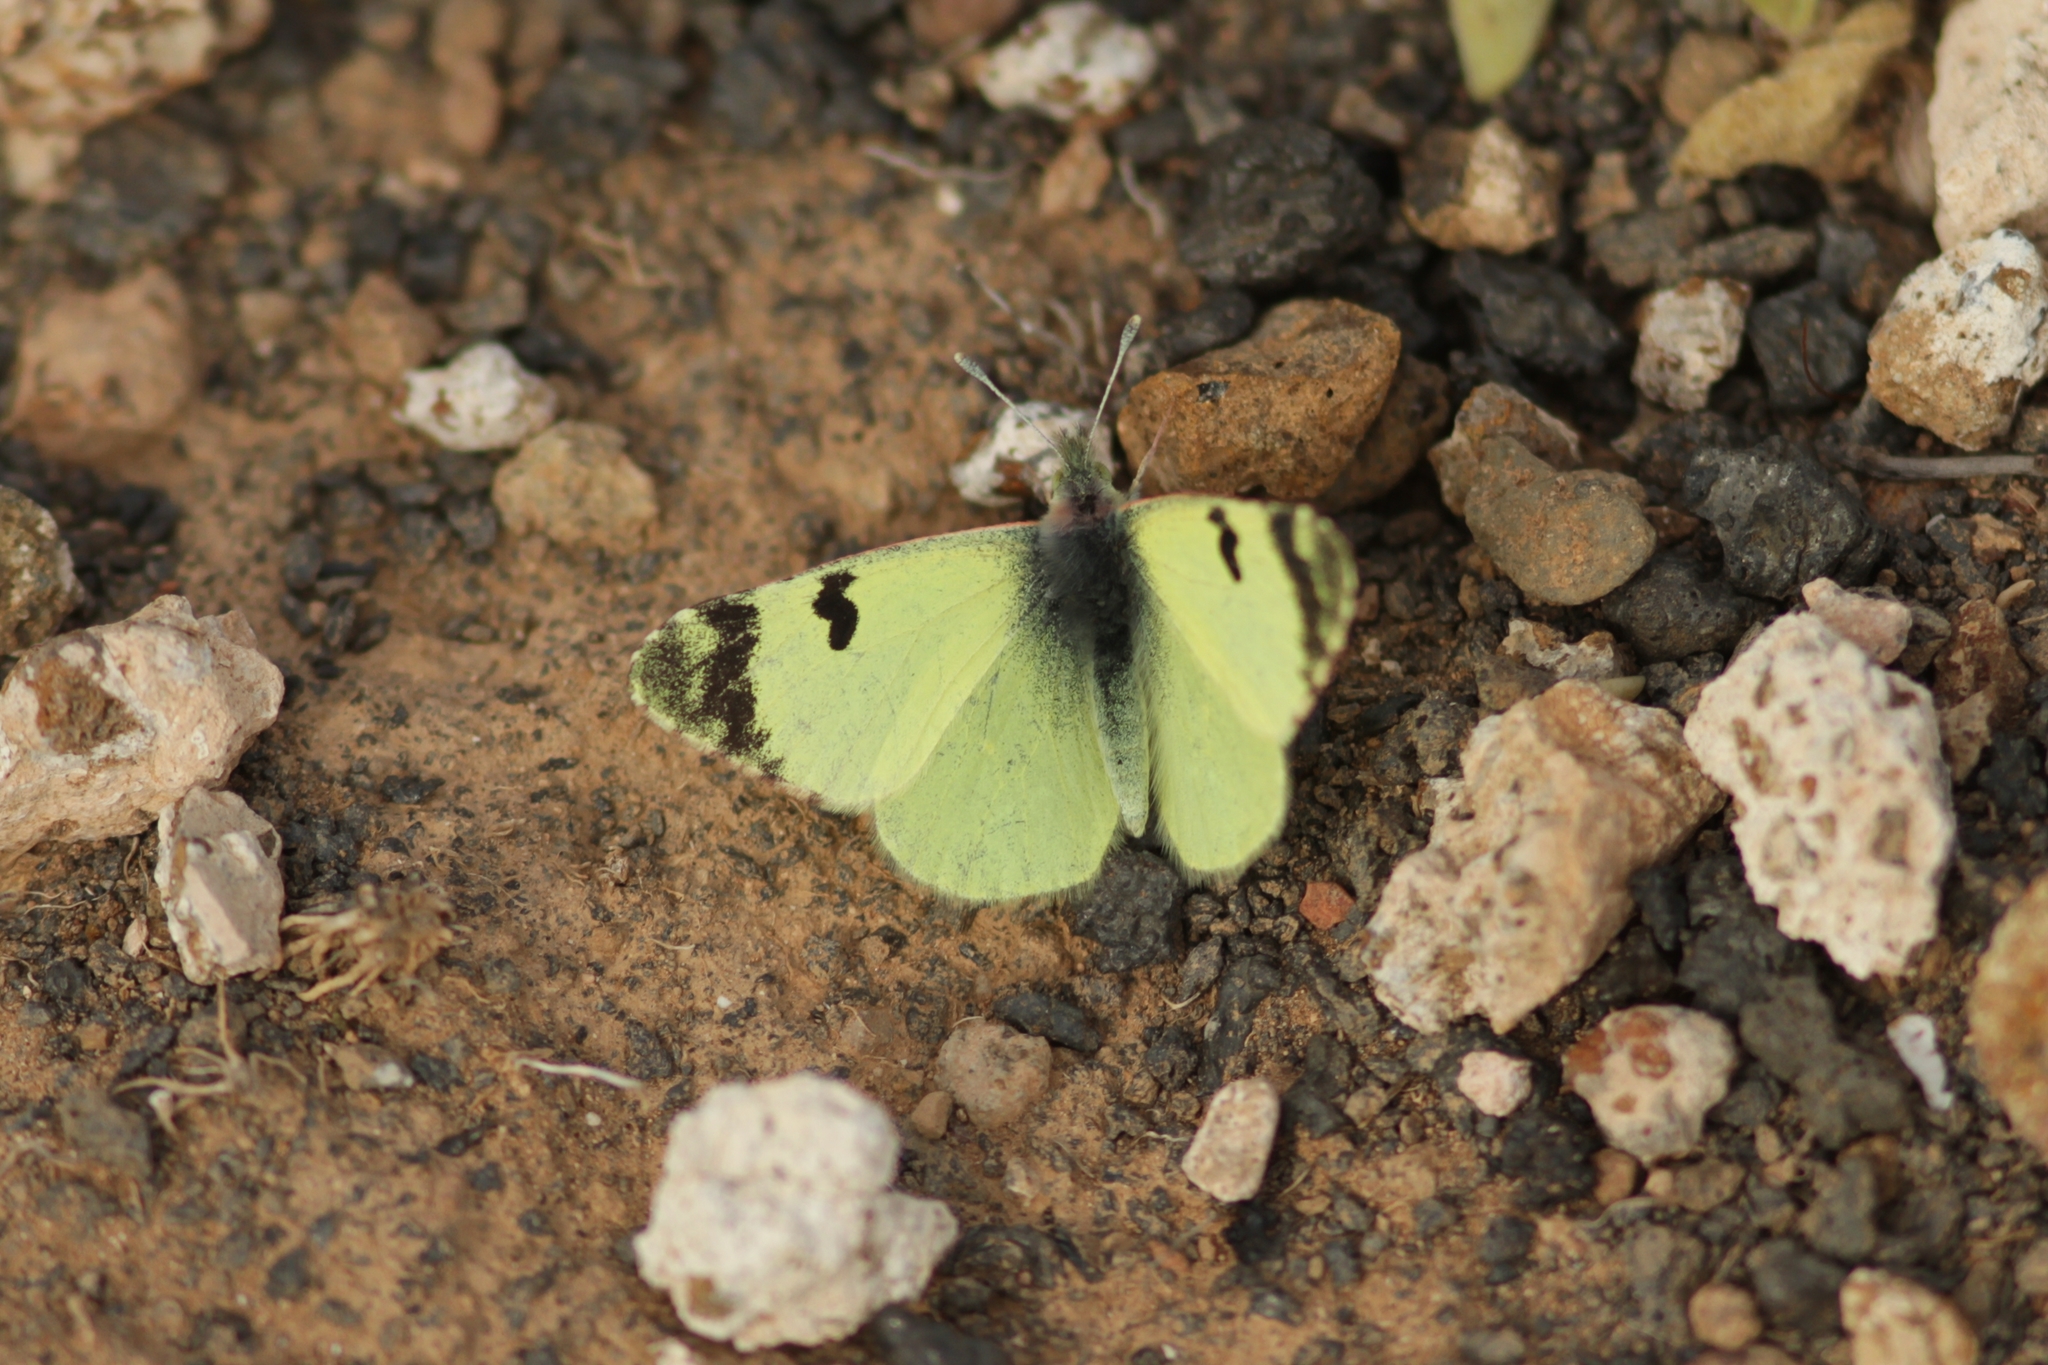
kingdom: Animalia
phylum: Arthropoda
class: Insecta
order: Lepidoptera
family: Pieridae
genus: Elphinstonia
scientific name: Elphinstonia charlonia
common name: Greenish black-tip
